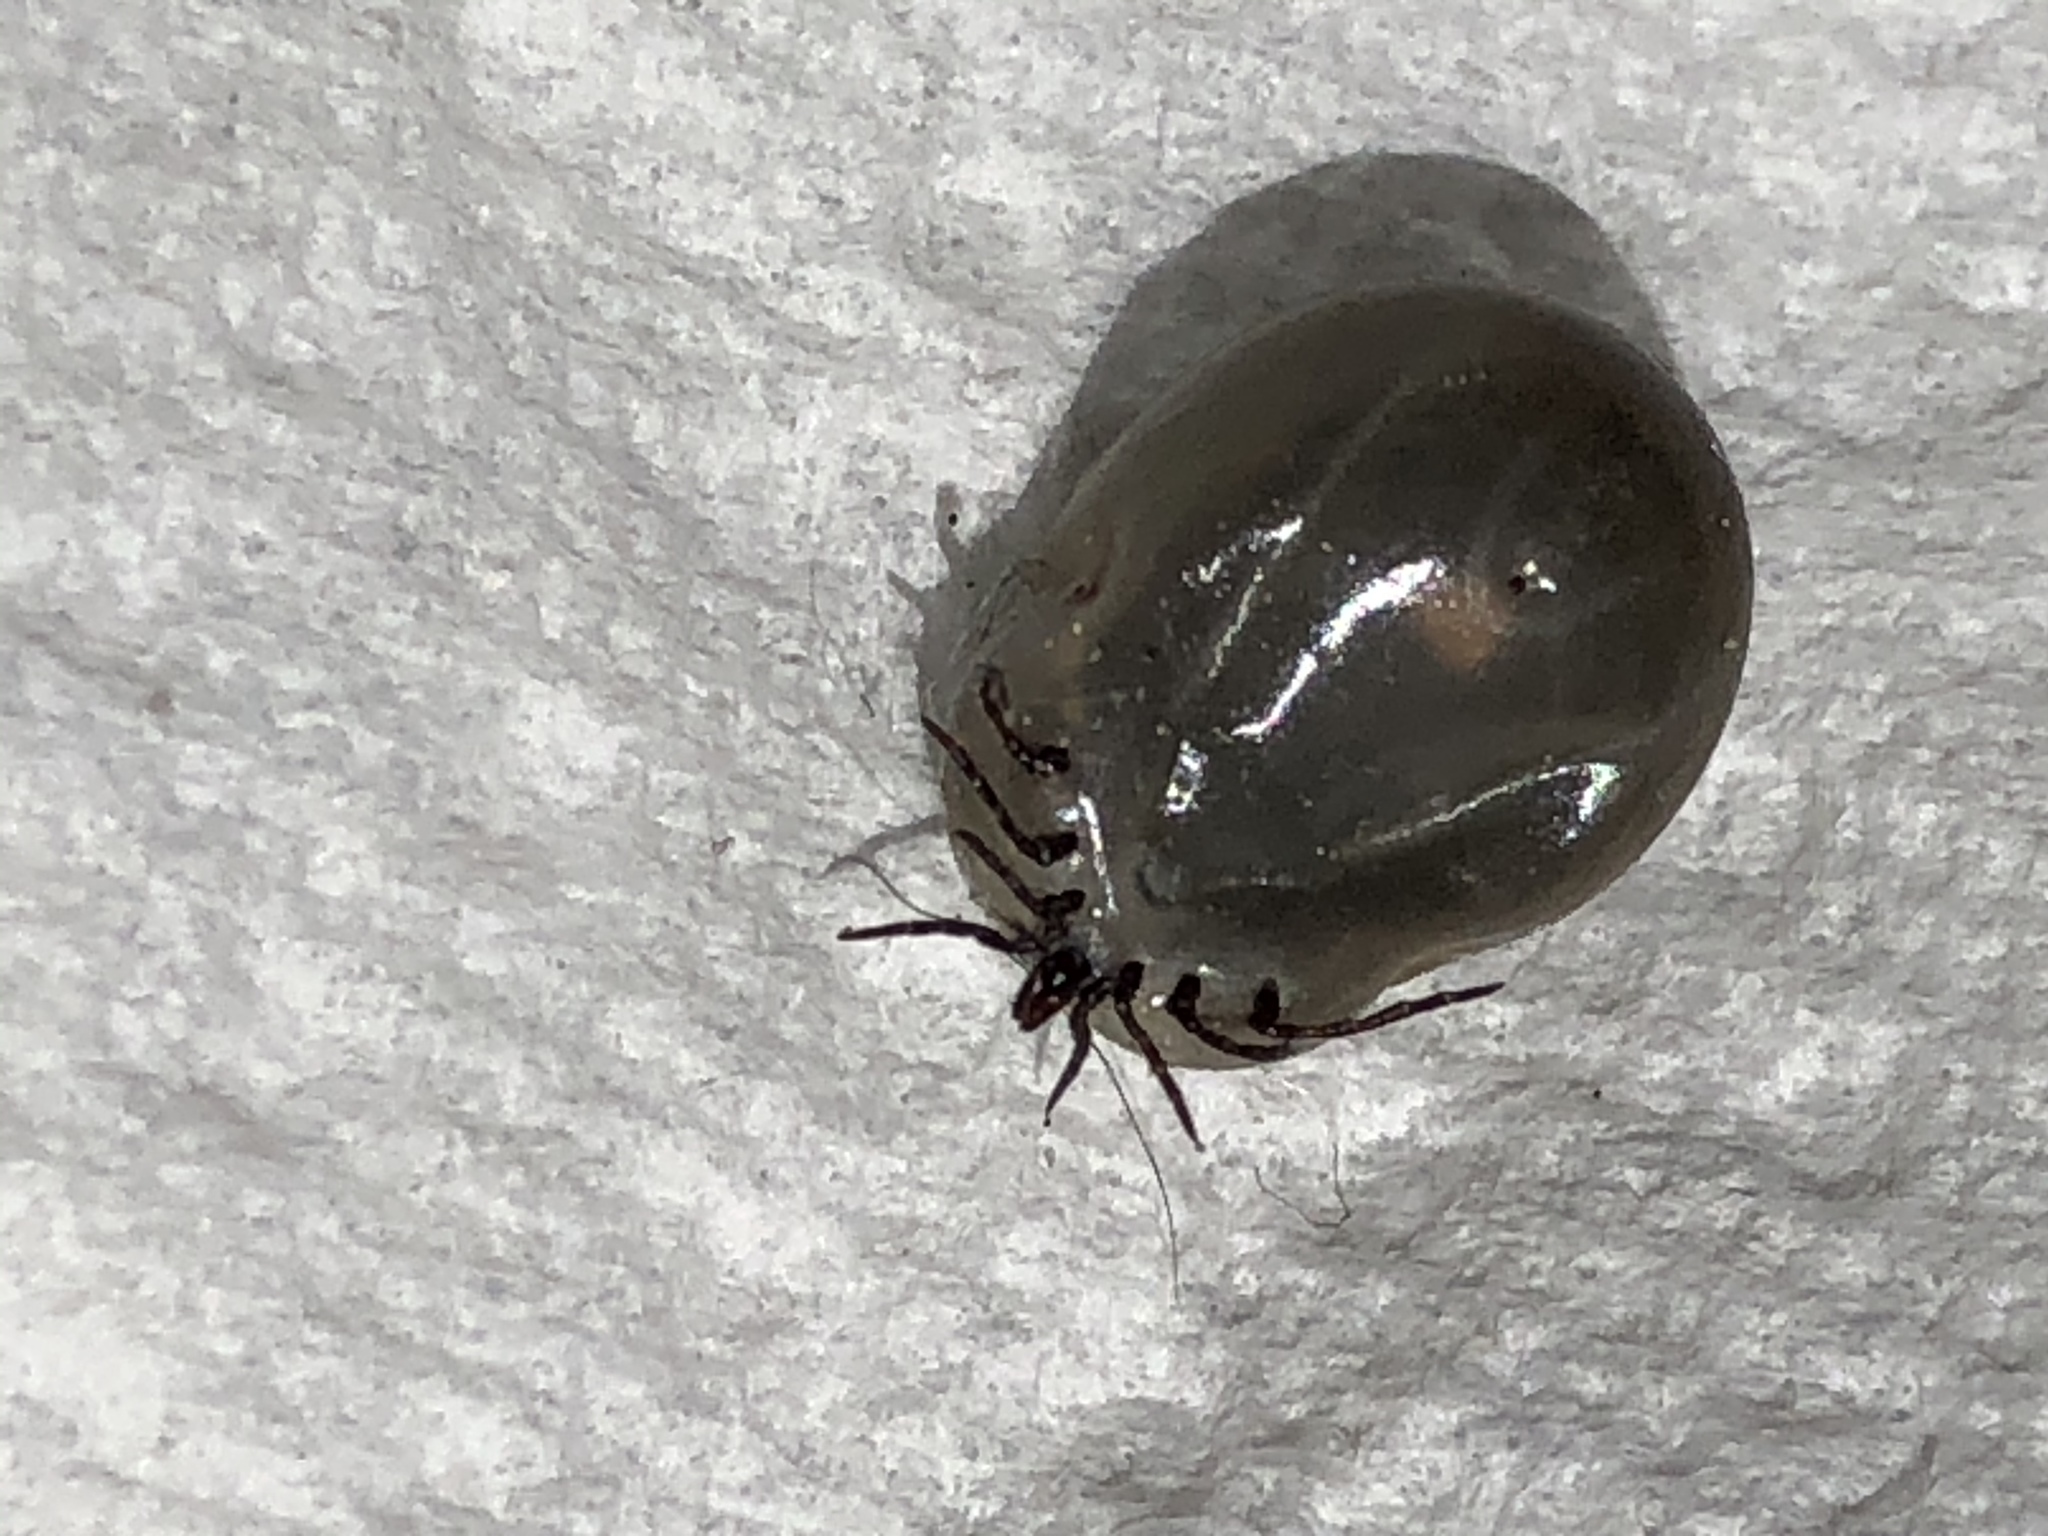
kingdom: Animalia
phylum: Arthropoda
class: Arachnida
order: Ixodida
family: Ixodidae
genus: Ixodes
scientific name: Ixodes ricinus
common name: Castor bean tick
